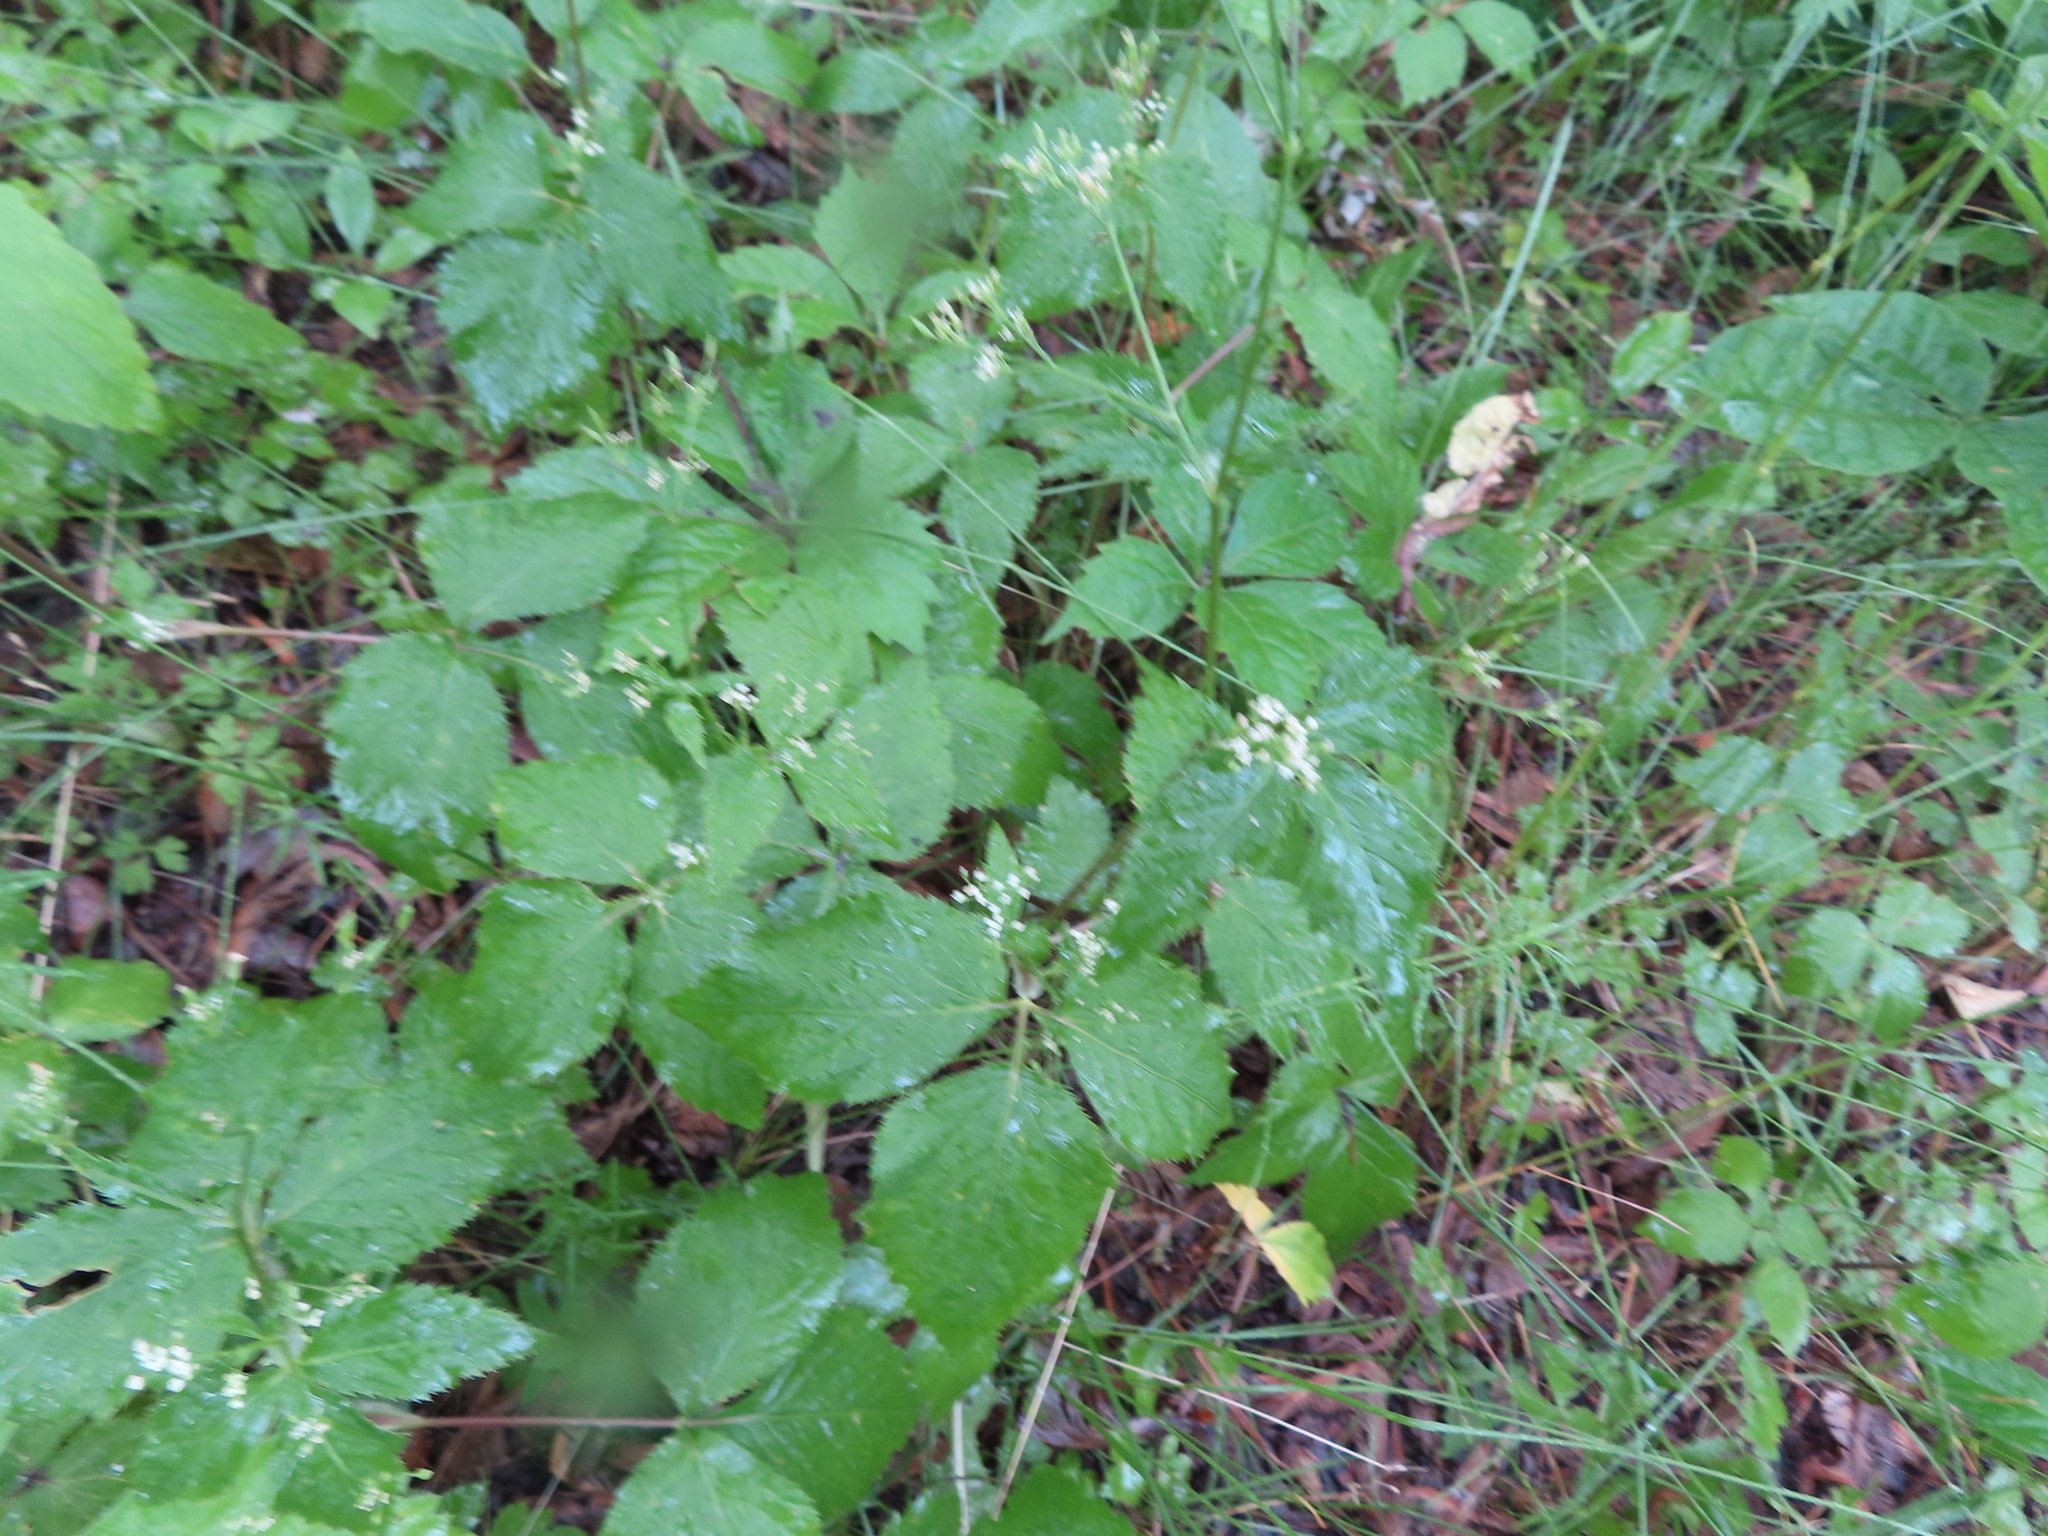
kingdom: Plantae
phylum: Tracheophyta
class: Magnoliopsida
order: Apiales
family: Apiaceae
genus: Cryptotaenia
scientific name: Cryptotaenia canadensis
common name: Honewort
